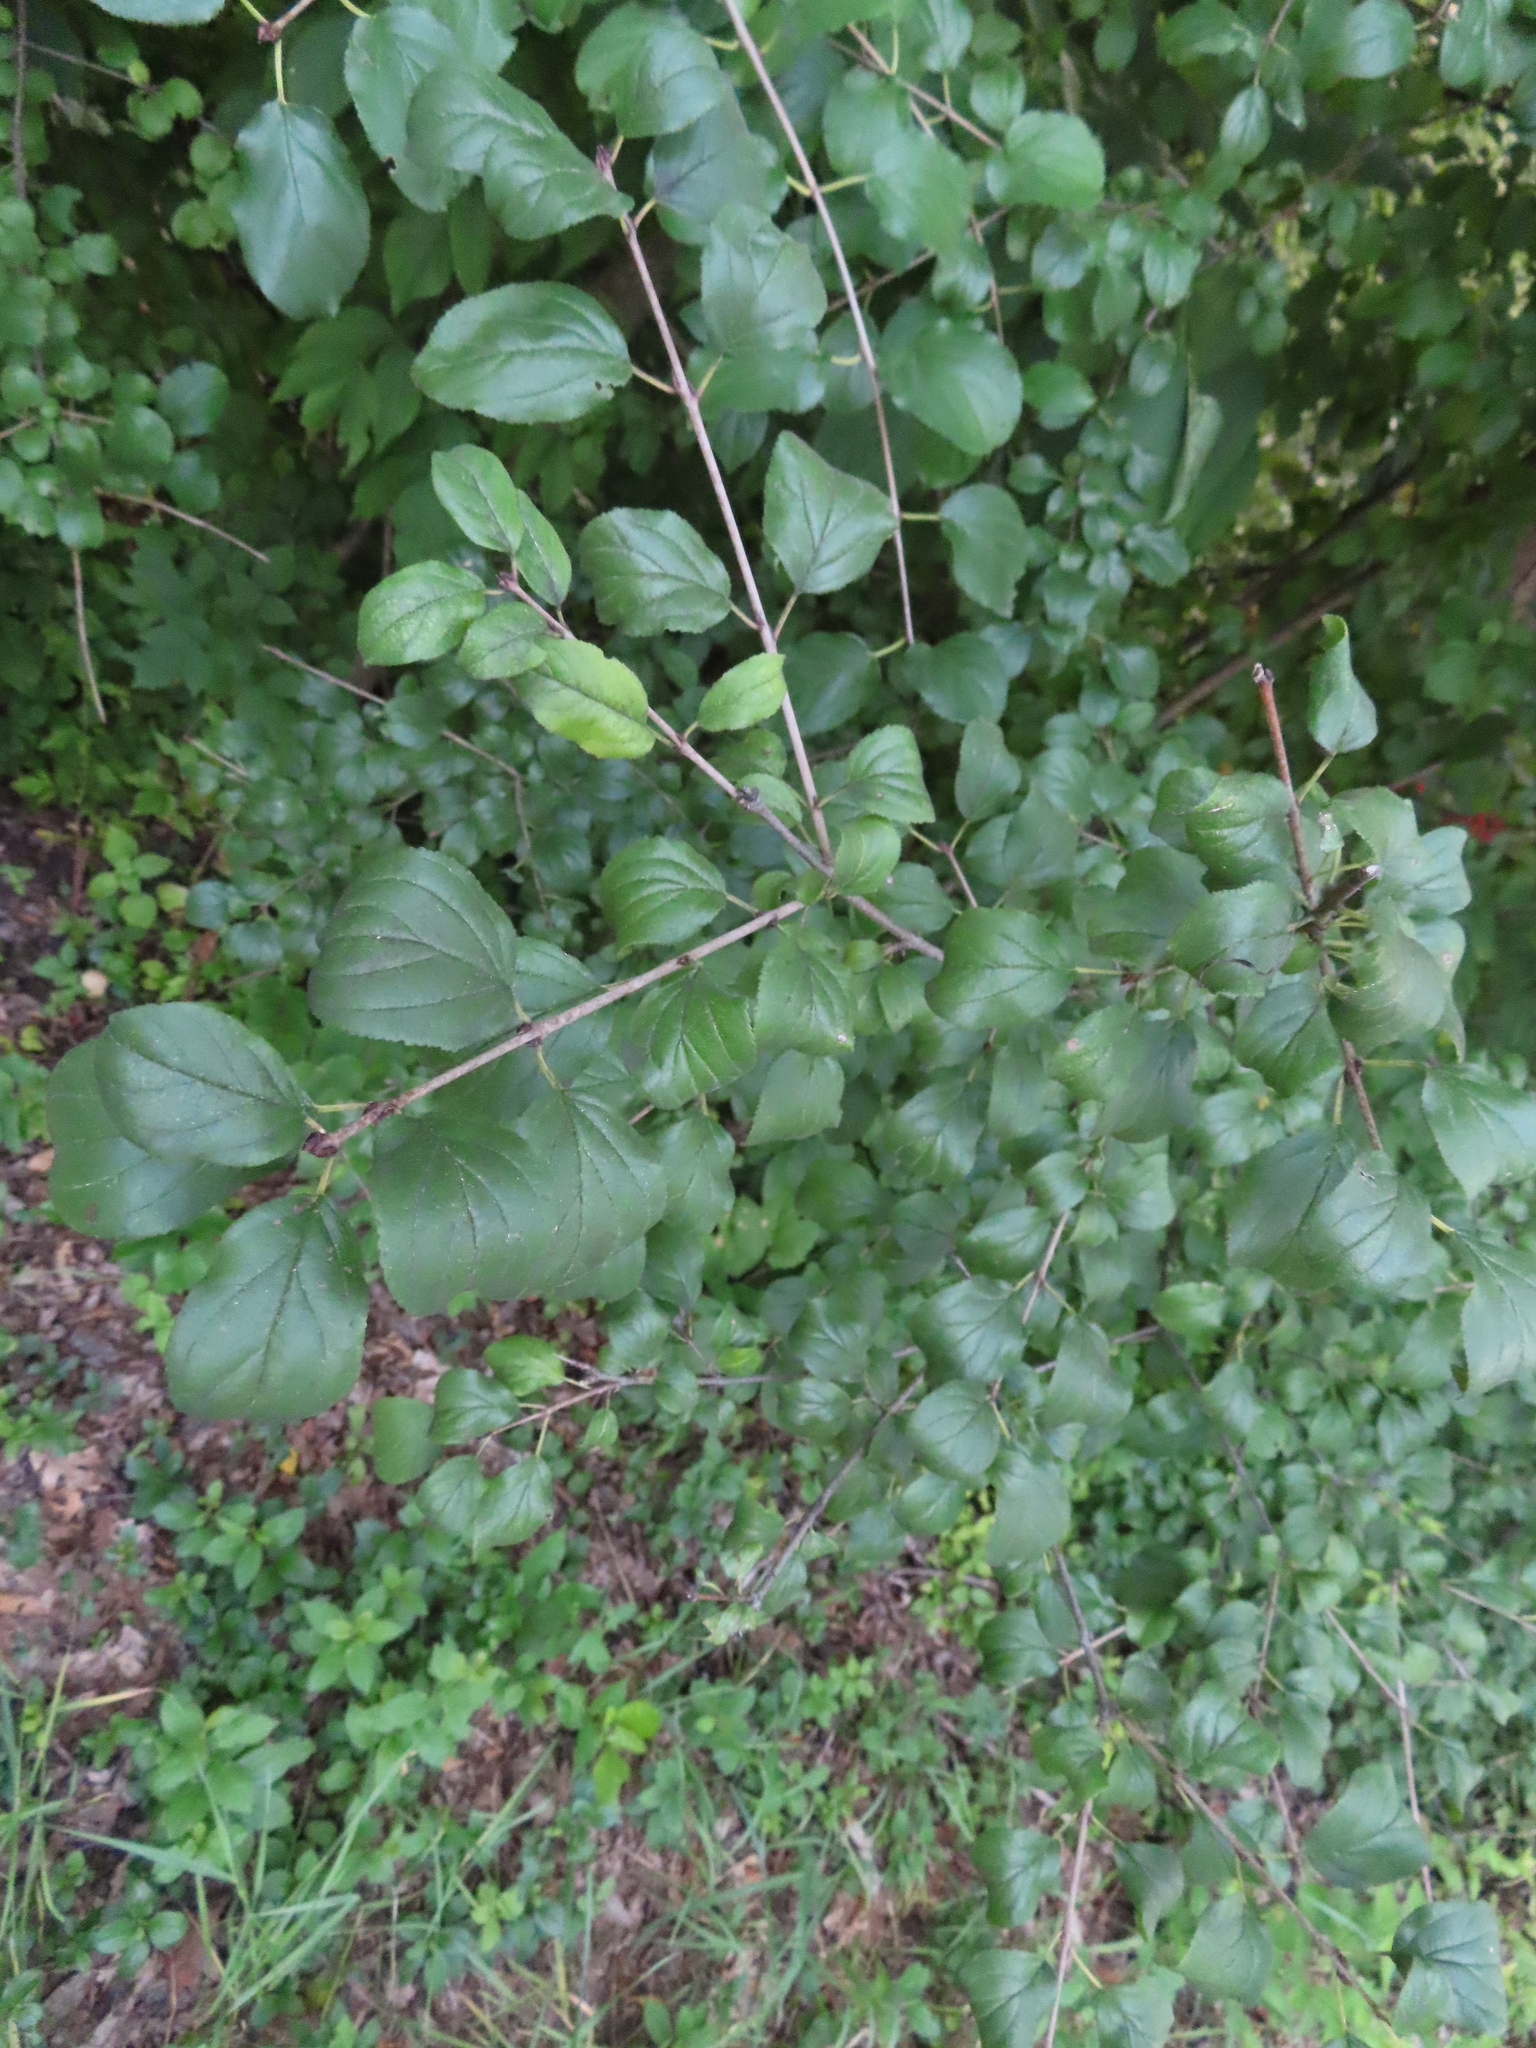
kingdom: Plantae
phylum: Tracheophyta
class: Magnoliopsida
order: Rosales
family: Rhamnaceae
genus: Rhamnus
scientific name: Rhamnus cathartica
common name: Common buckthorn
